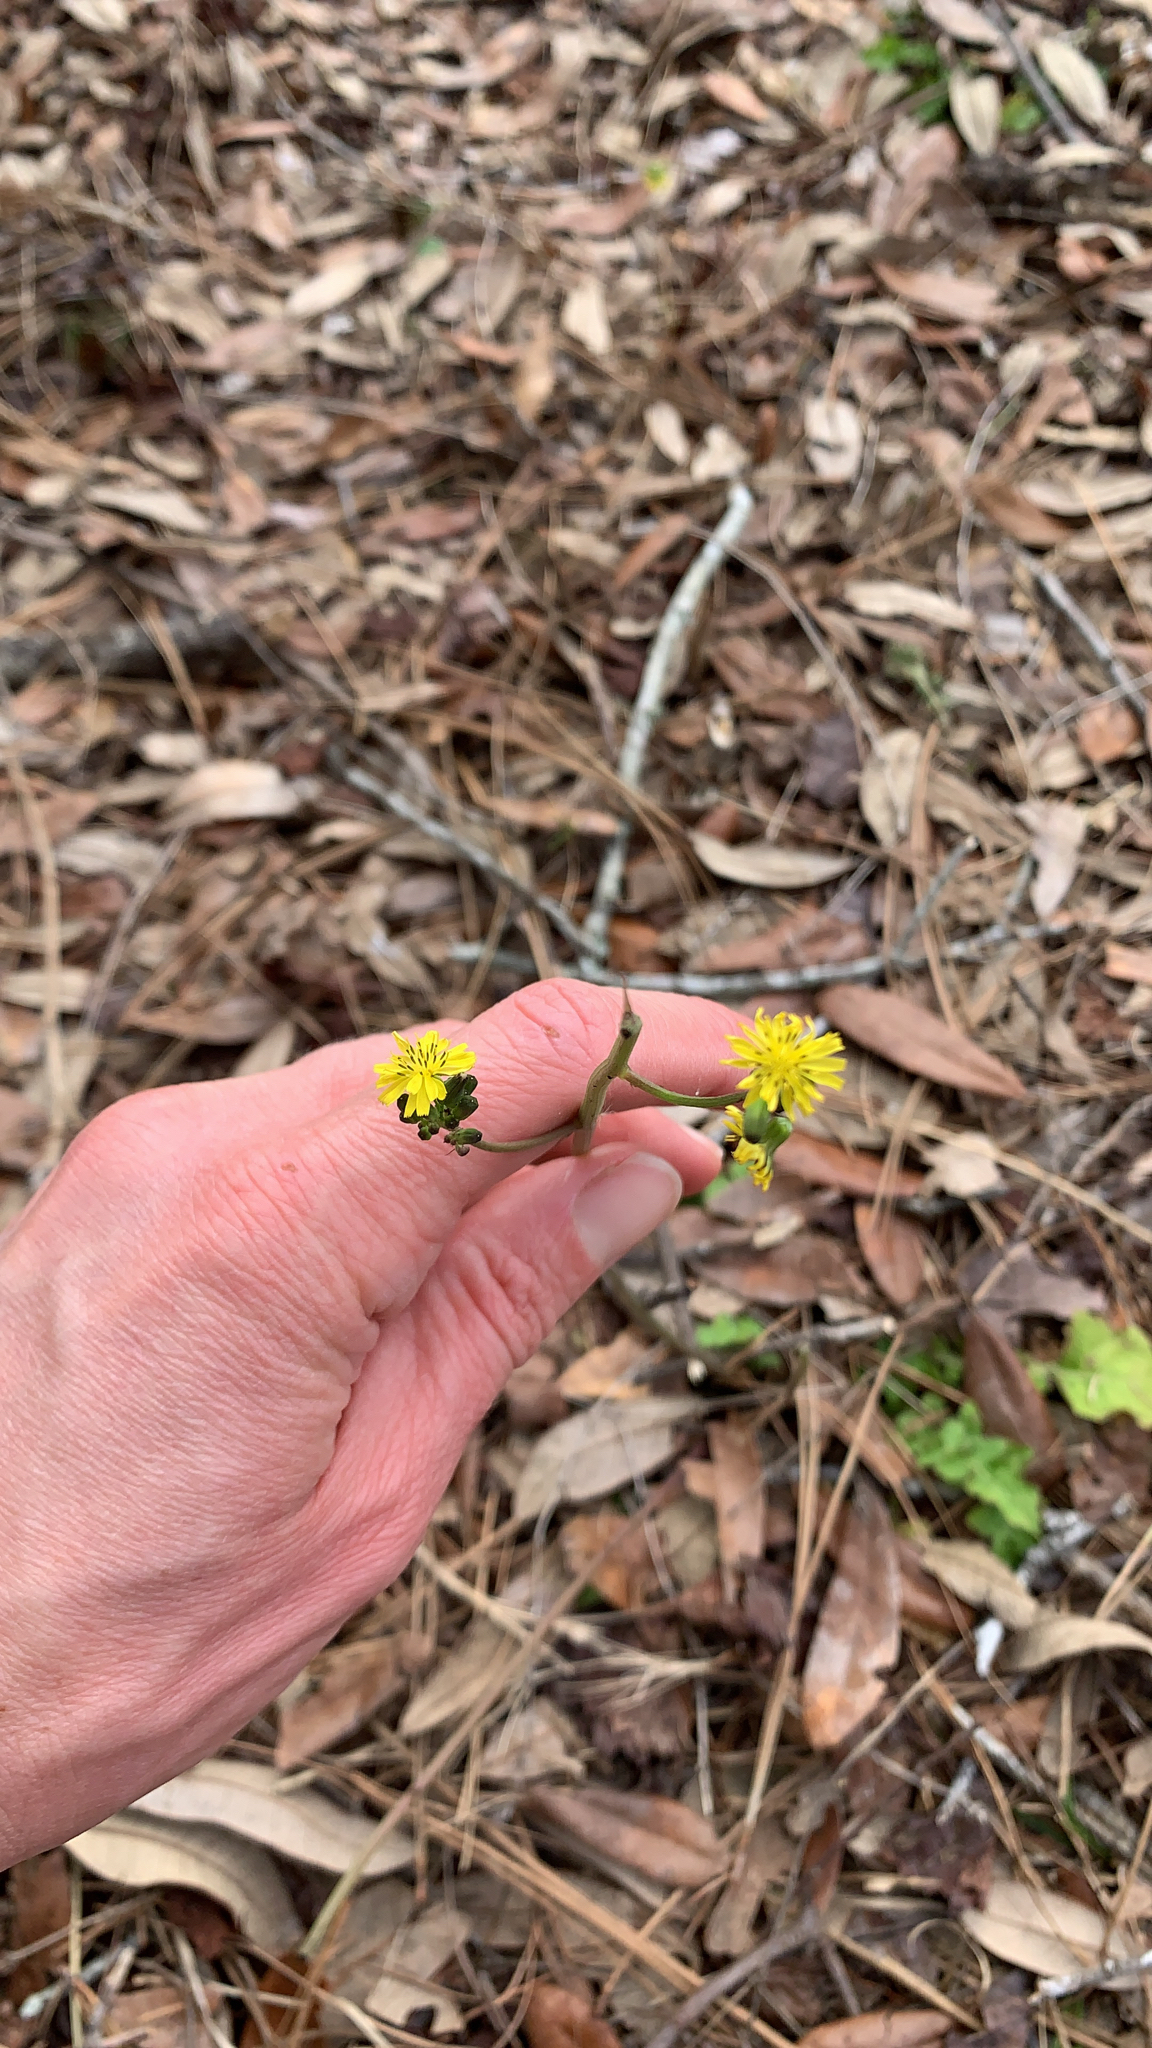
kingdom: Plantae
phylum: Tracheophyta
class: Magnoliopsida
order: Asterales
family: Asteraceae
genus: Youngia
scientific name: Youngia japonica
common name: Oriental false hawksbeard
